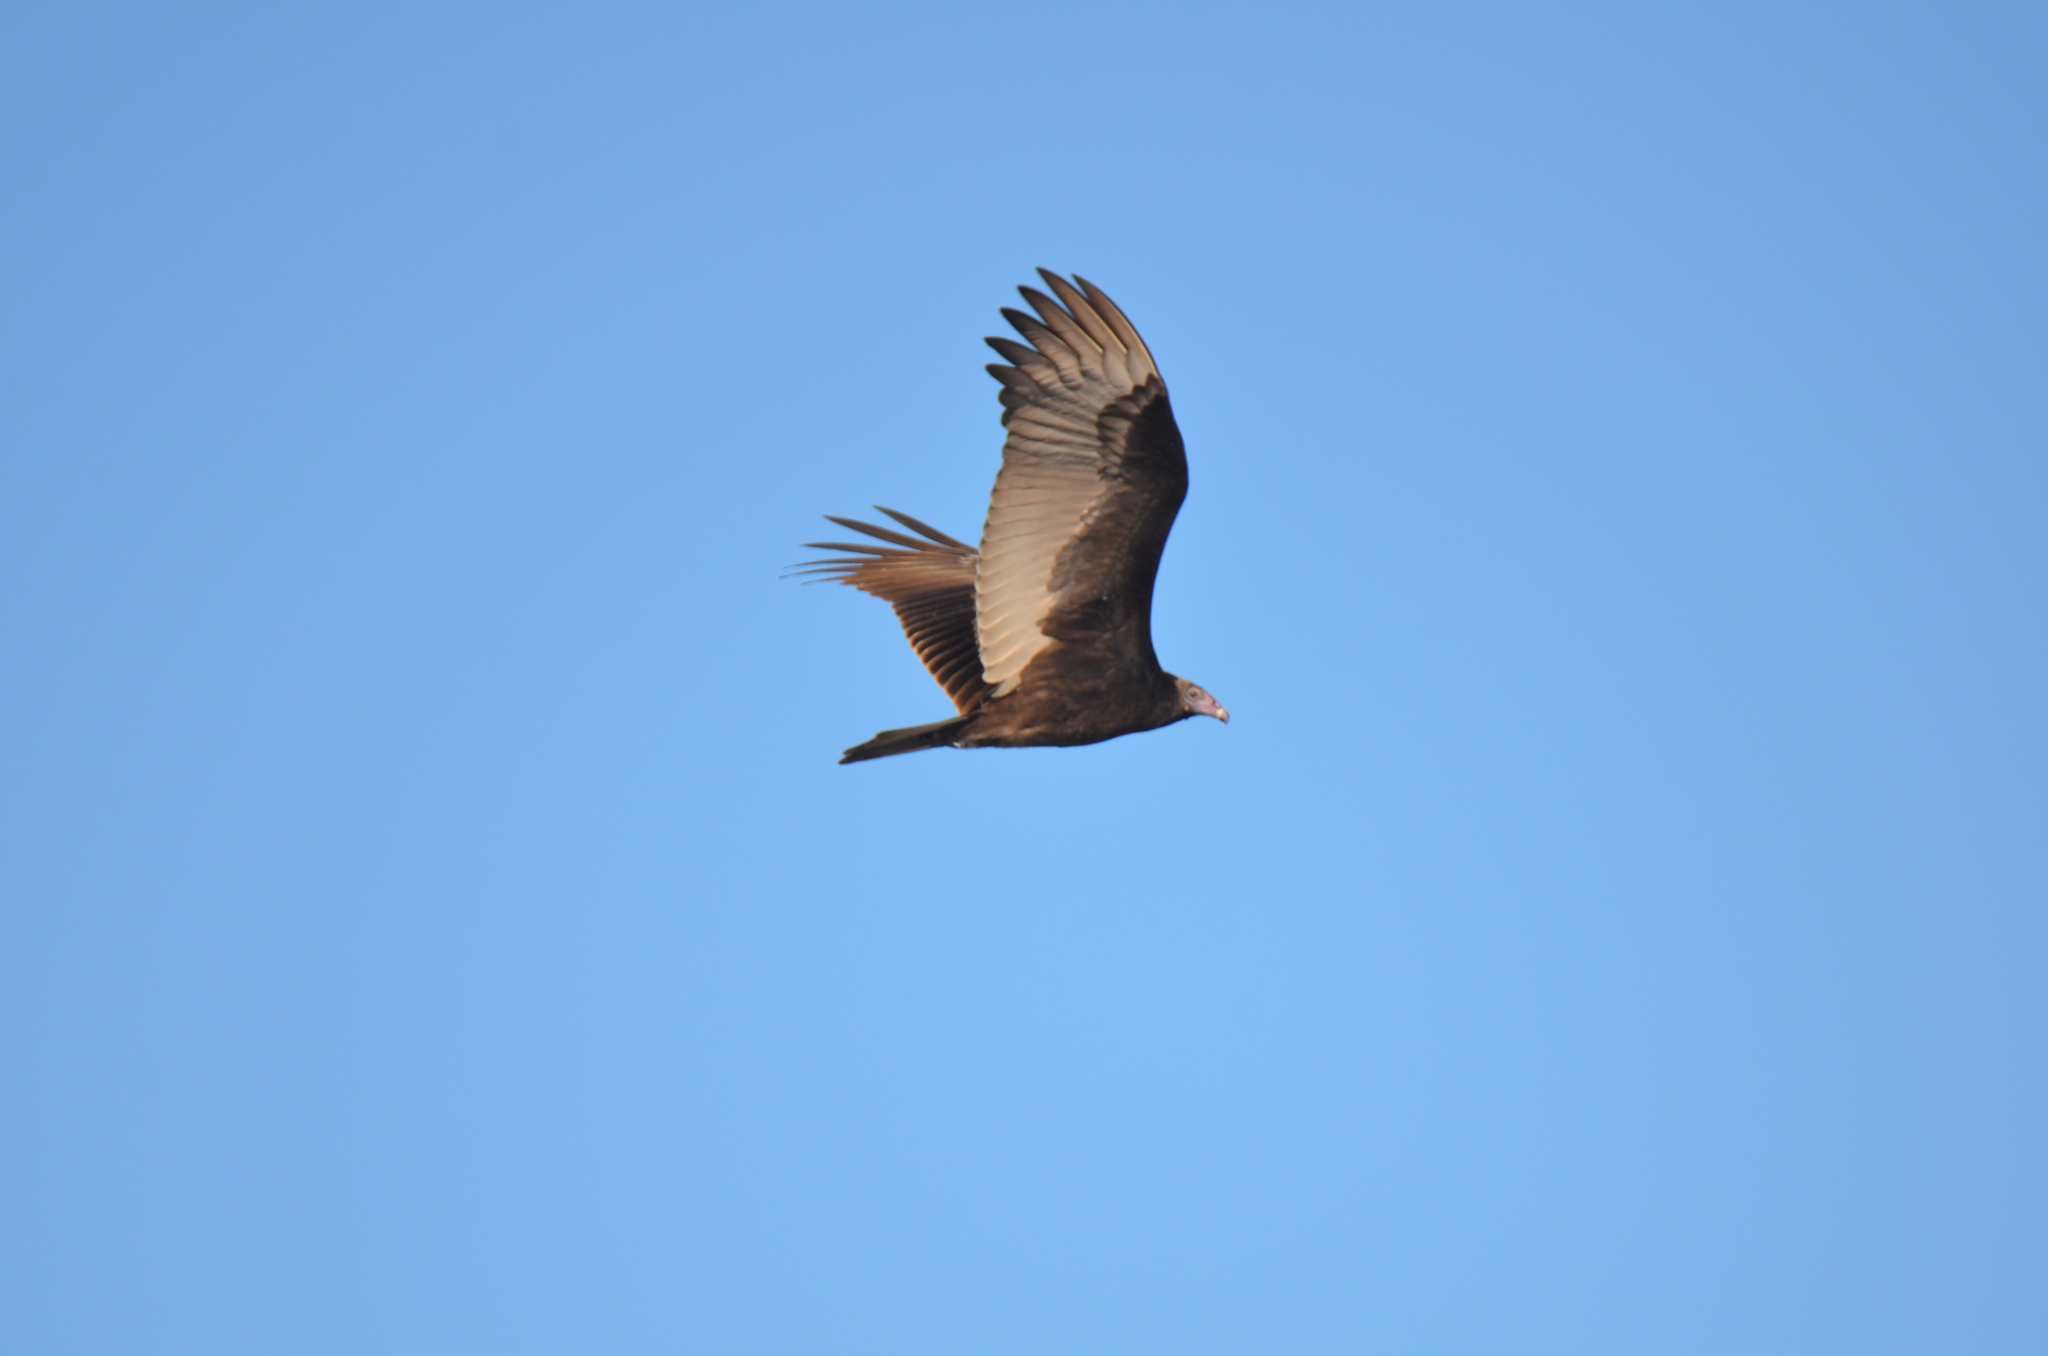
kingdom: Animalia
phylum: Chordata
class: Aves
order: Accipitriformes
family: Cathartidae
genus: Cathartes
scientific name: Cathartes aura
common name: Turkey vulture
